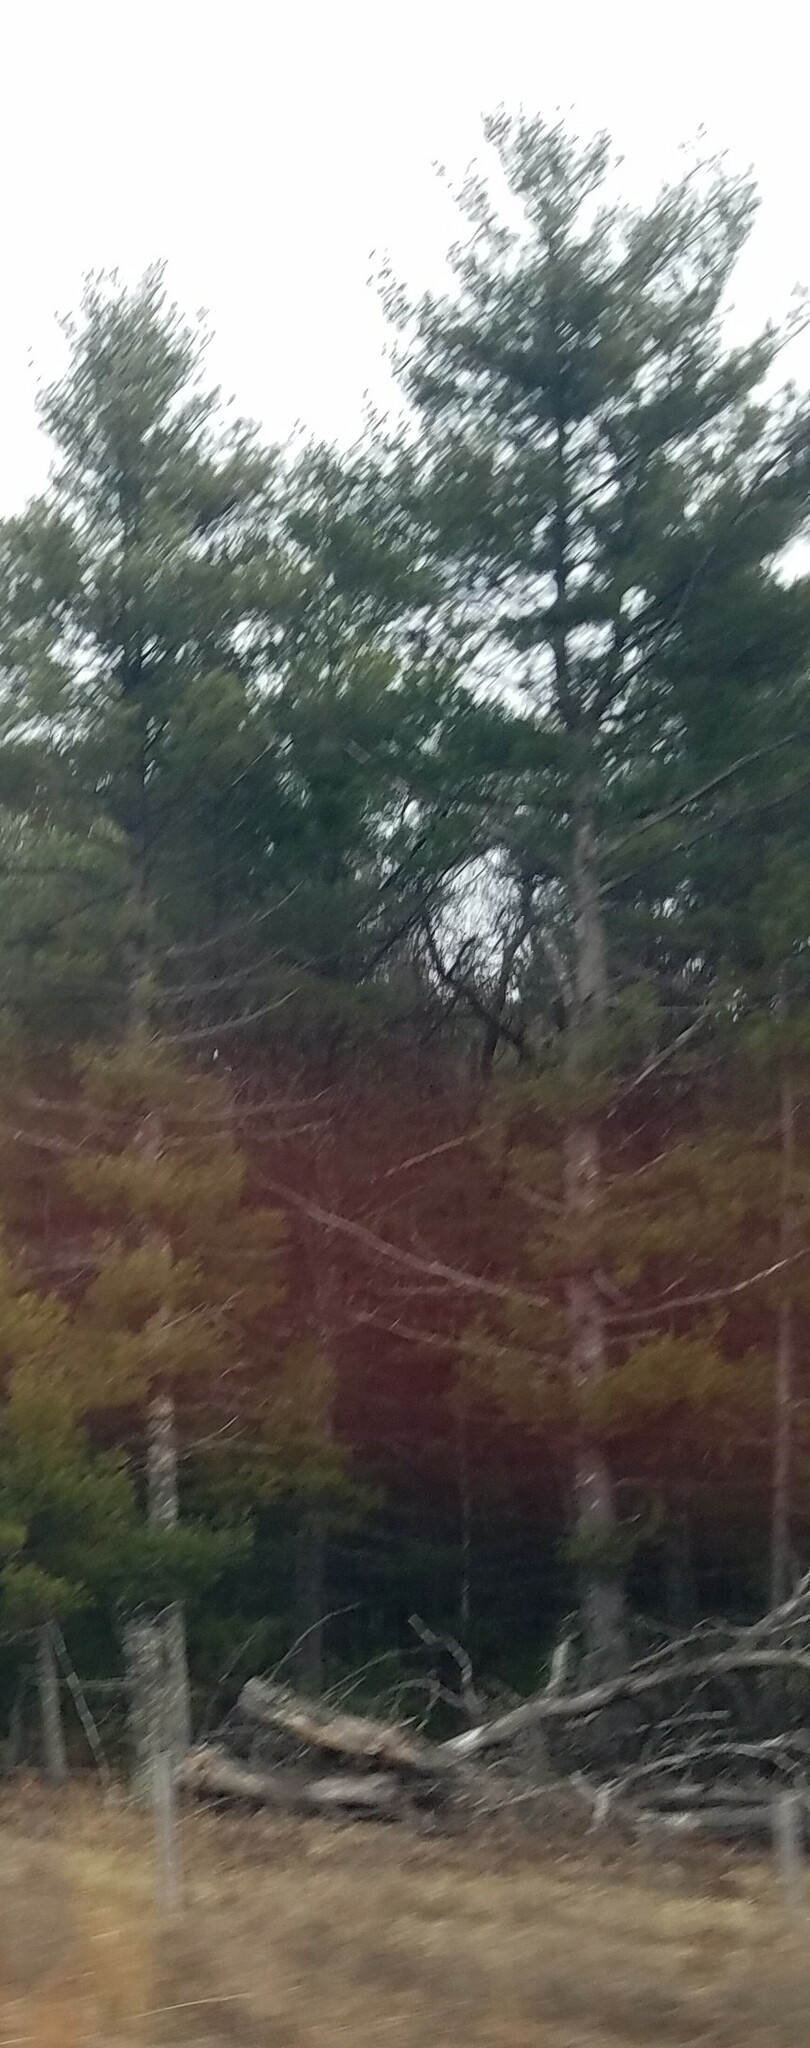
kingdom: Plantae
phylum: Tracheophyta
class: Pinopsida
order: Pinales
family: Pinaceae
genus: Pinus
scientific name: Pinus strobus
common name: Weymouth pine
